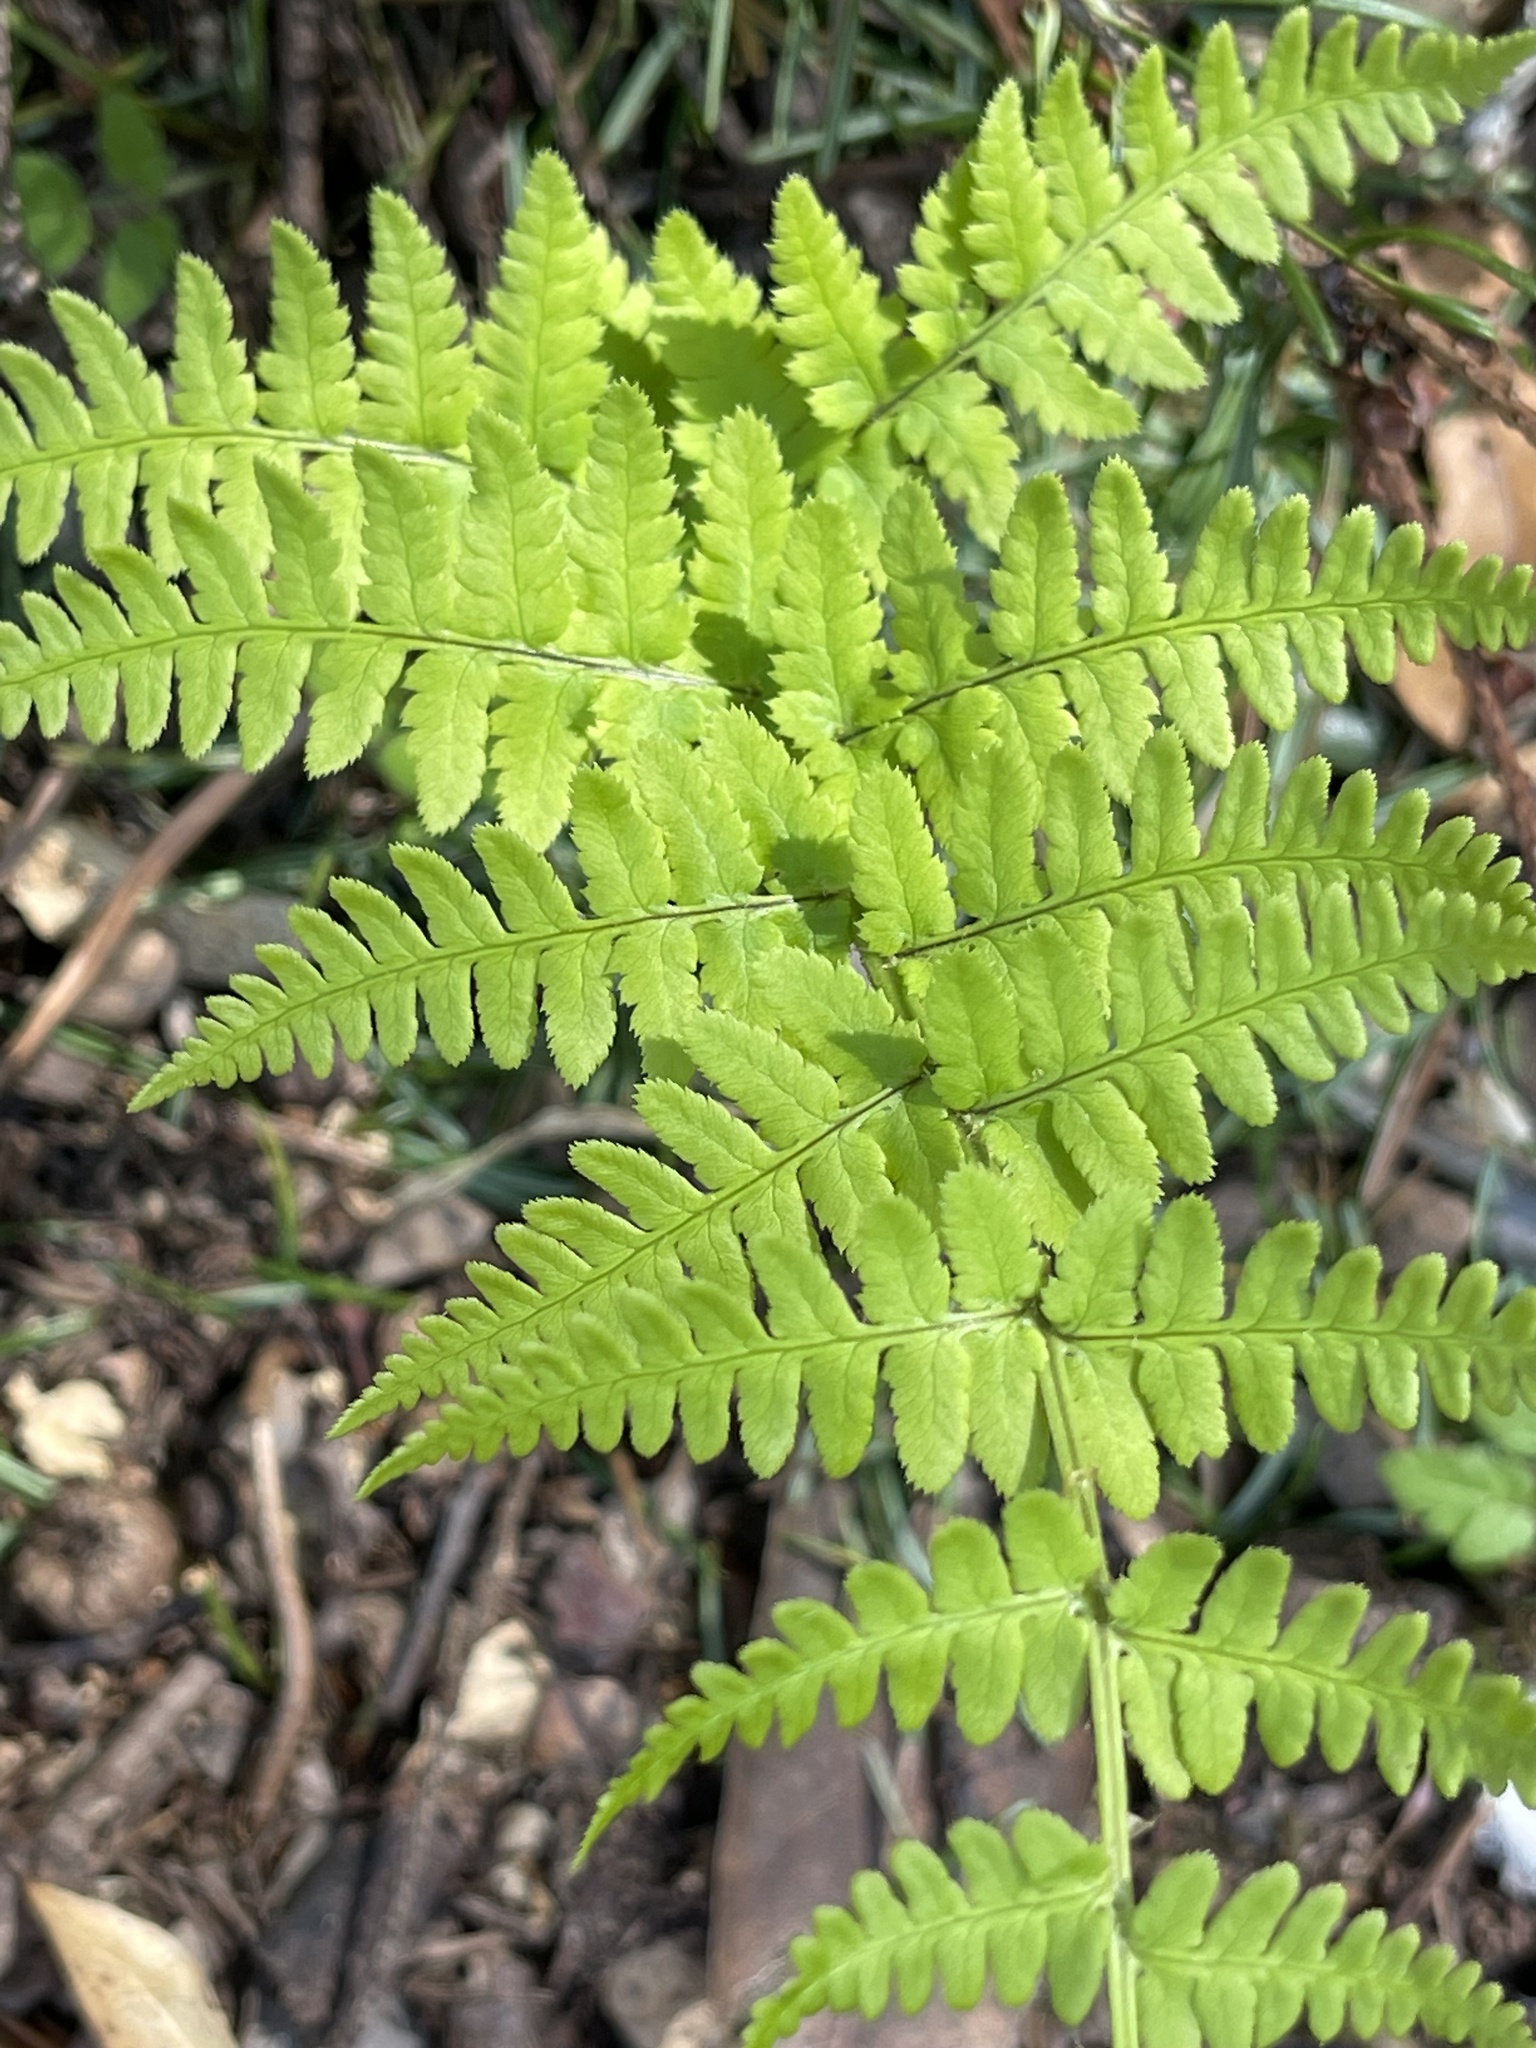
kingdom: Plantae
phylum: Tracheophyta
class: Polypodiopsida
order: Polypodiales
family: Dryopteridaceae
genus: Dryopteris
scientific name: Dryopteris arguta
